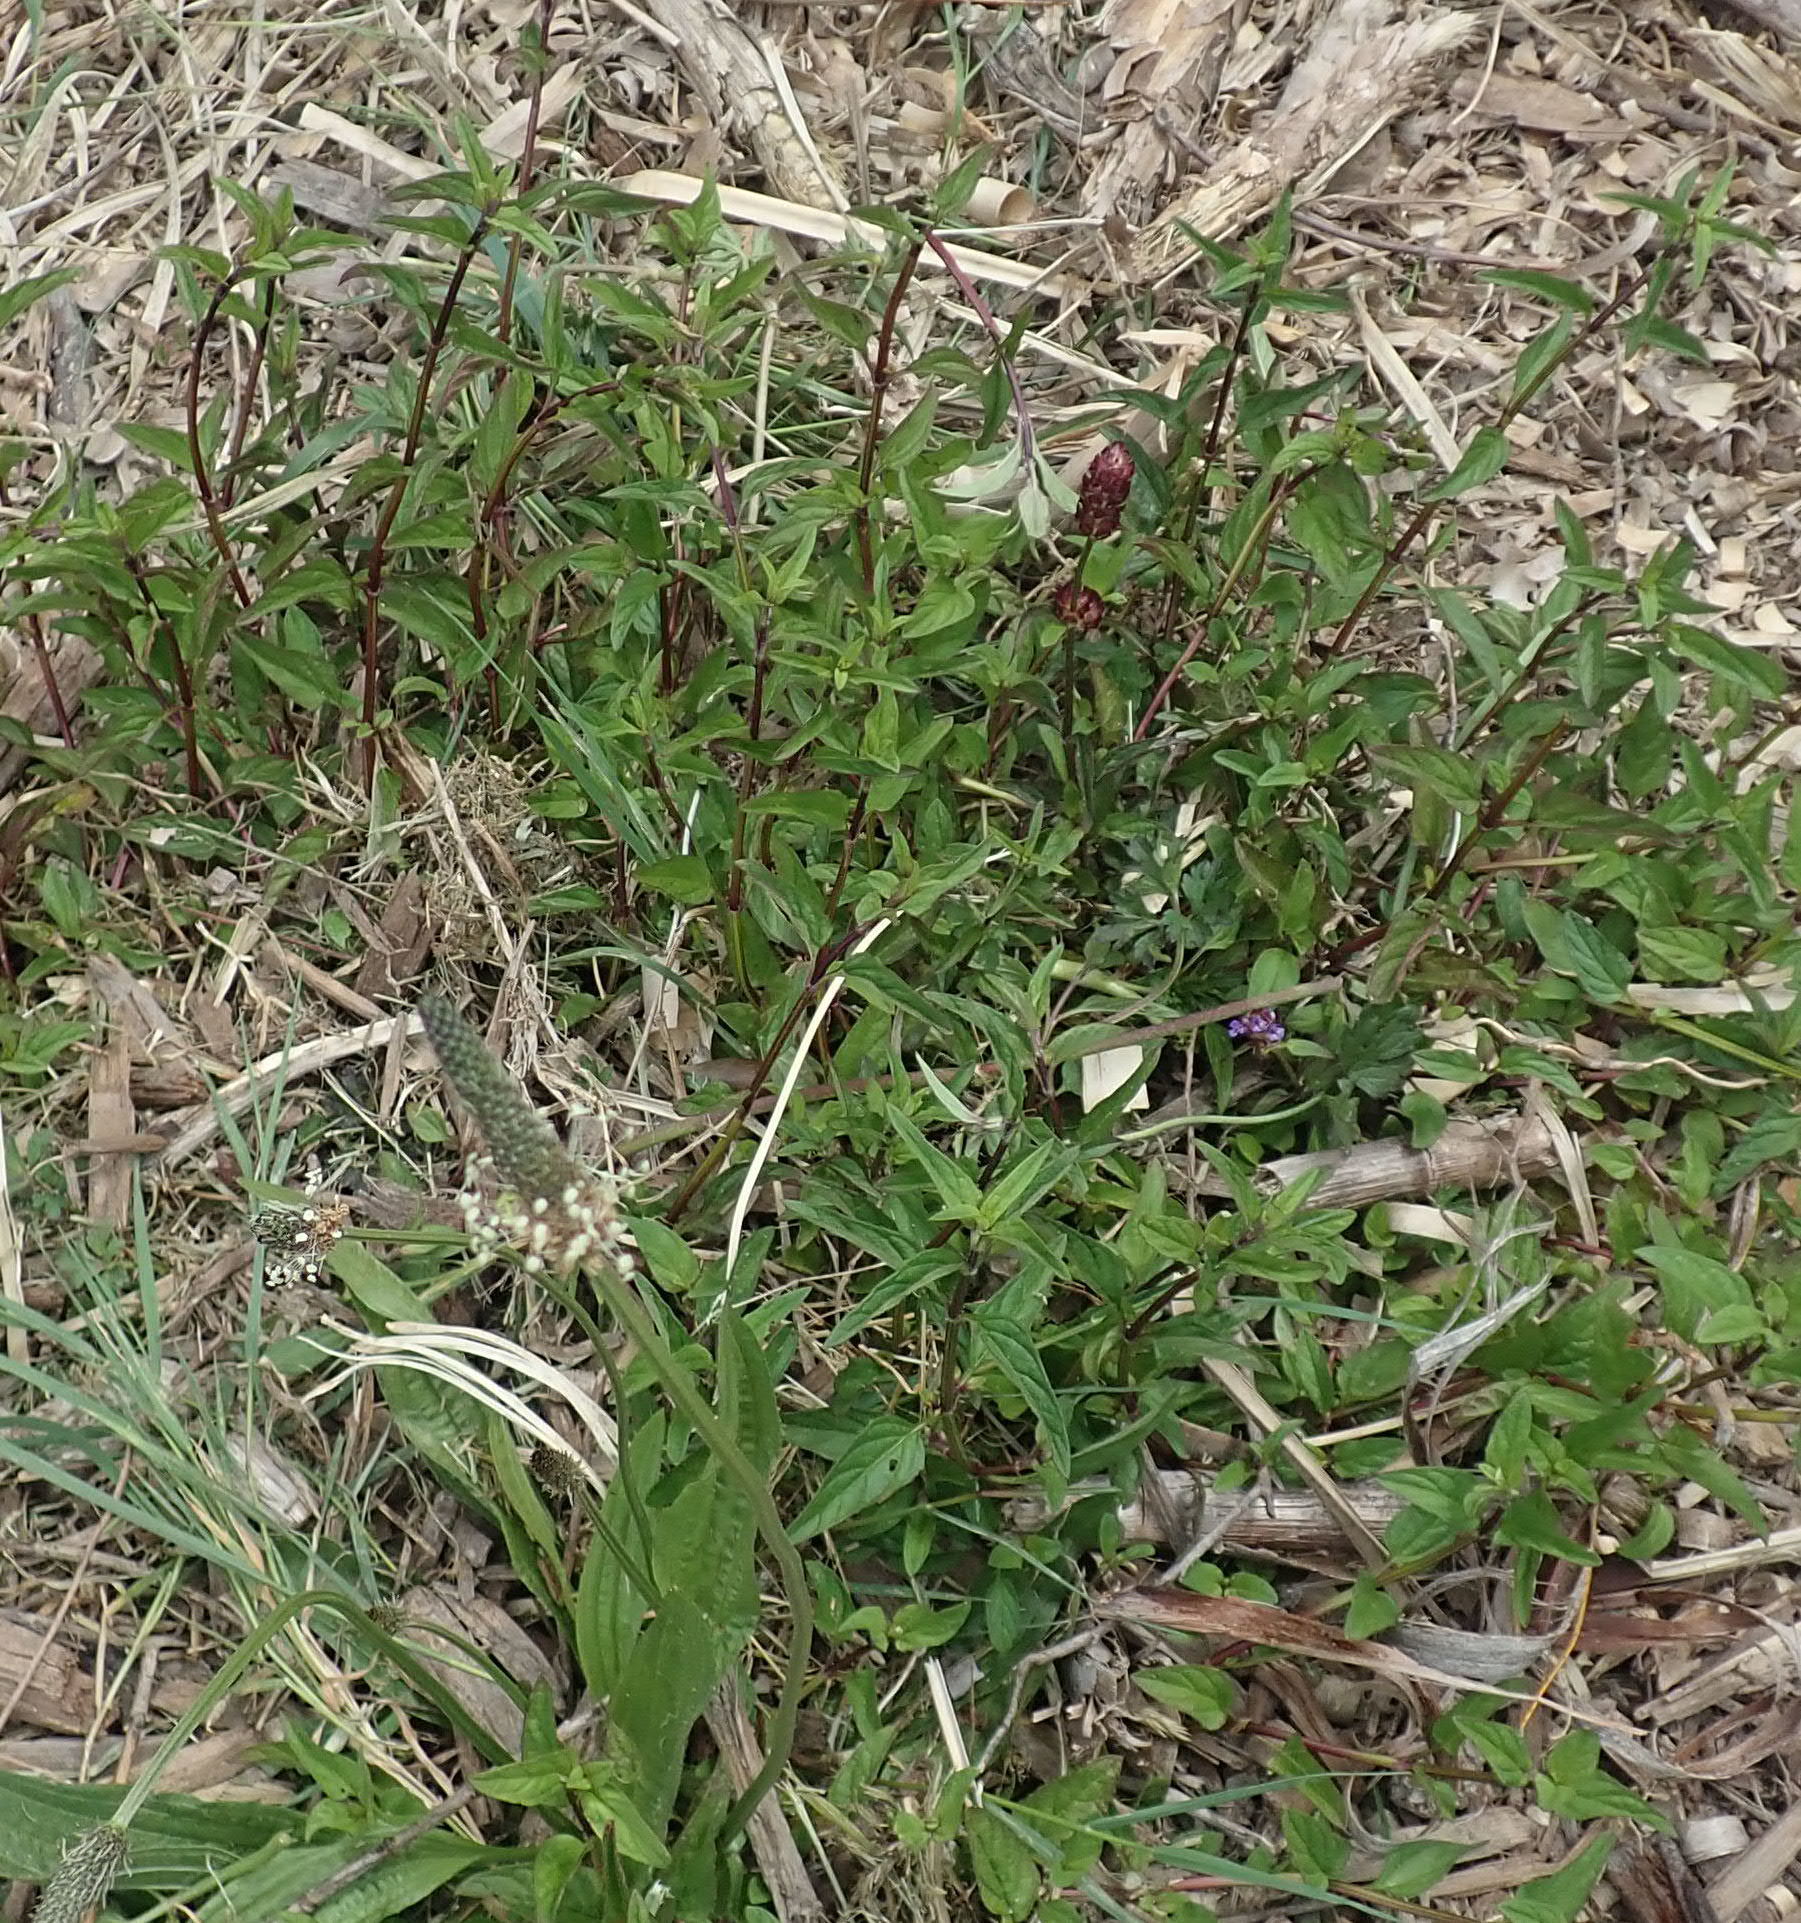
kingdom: Plantae
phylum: Tracheophyta
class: Magnoliopsida
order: Lamiales
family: Lamiaceae
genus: Prunella
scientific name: Prunella vulgaris
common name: Heal-all
